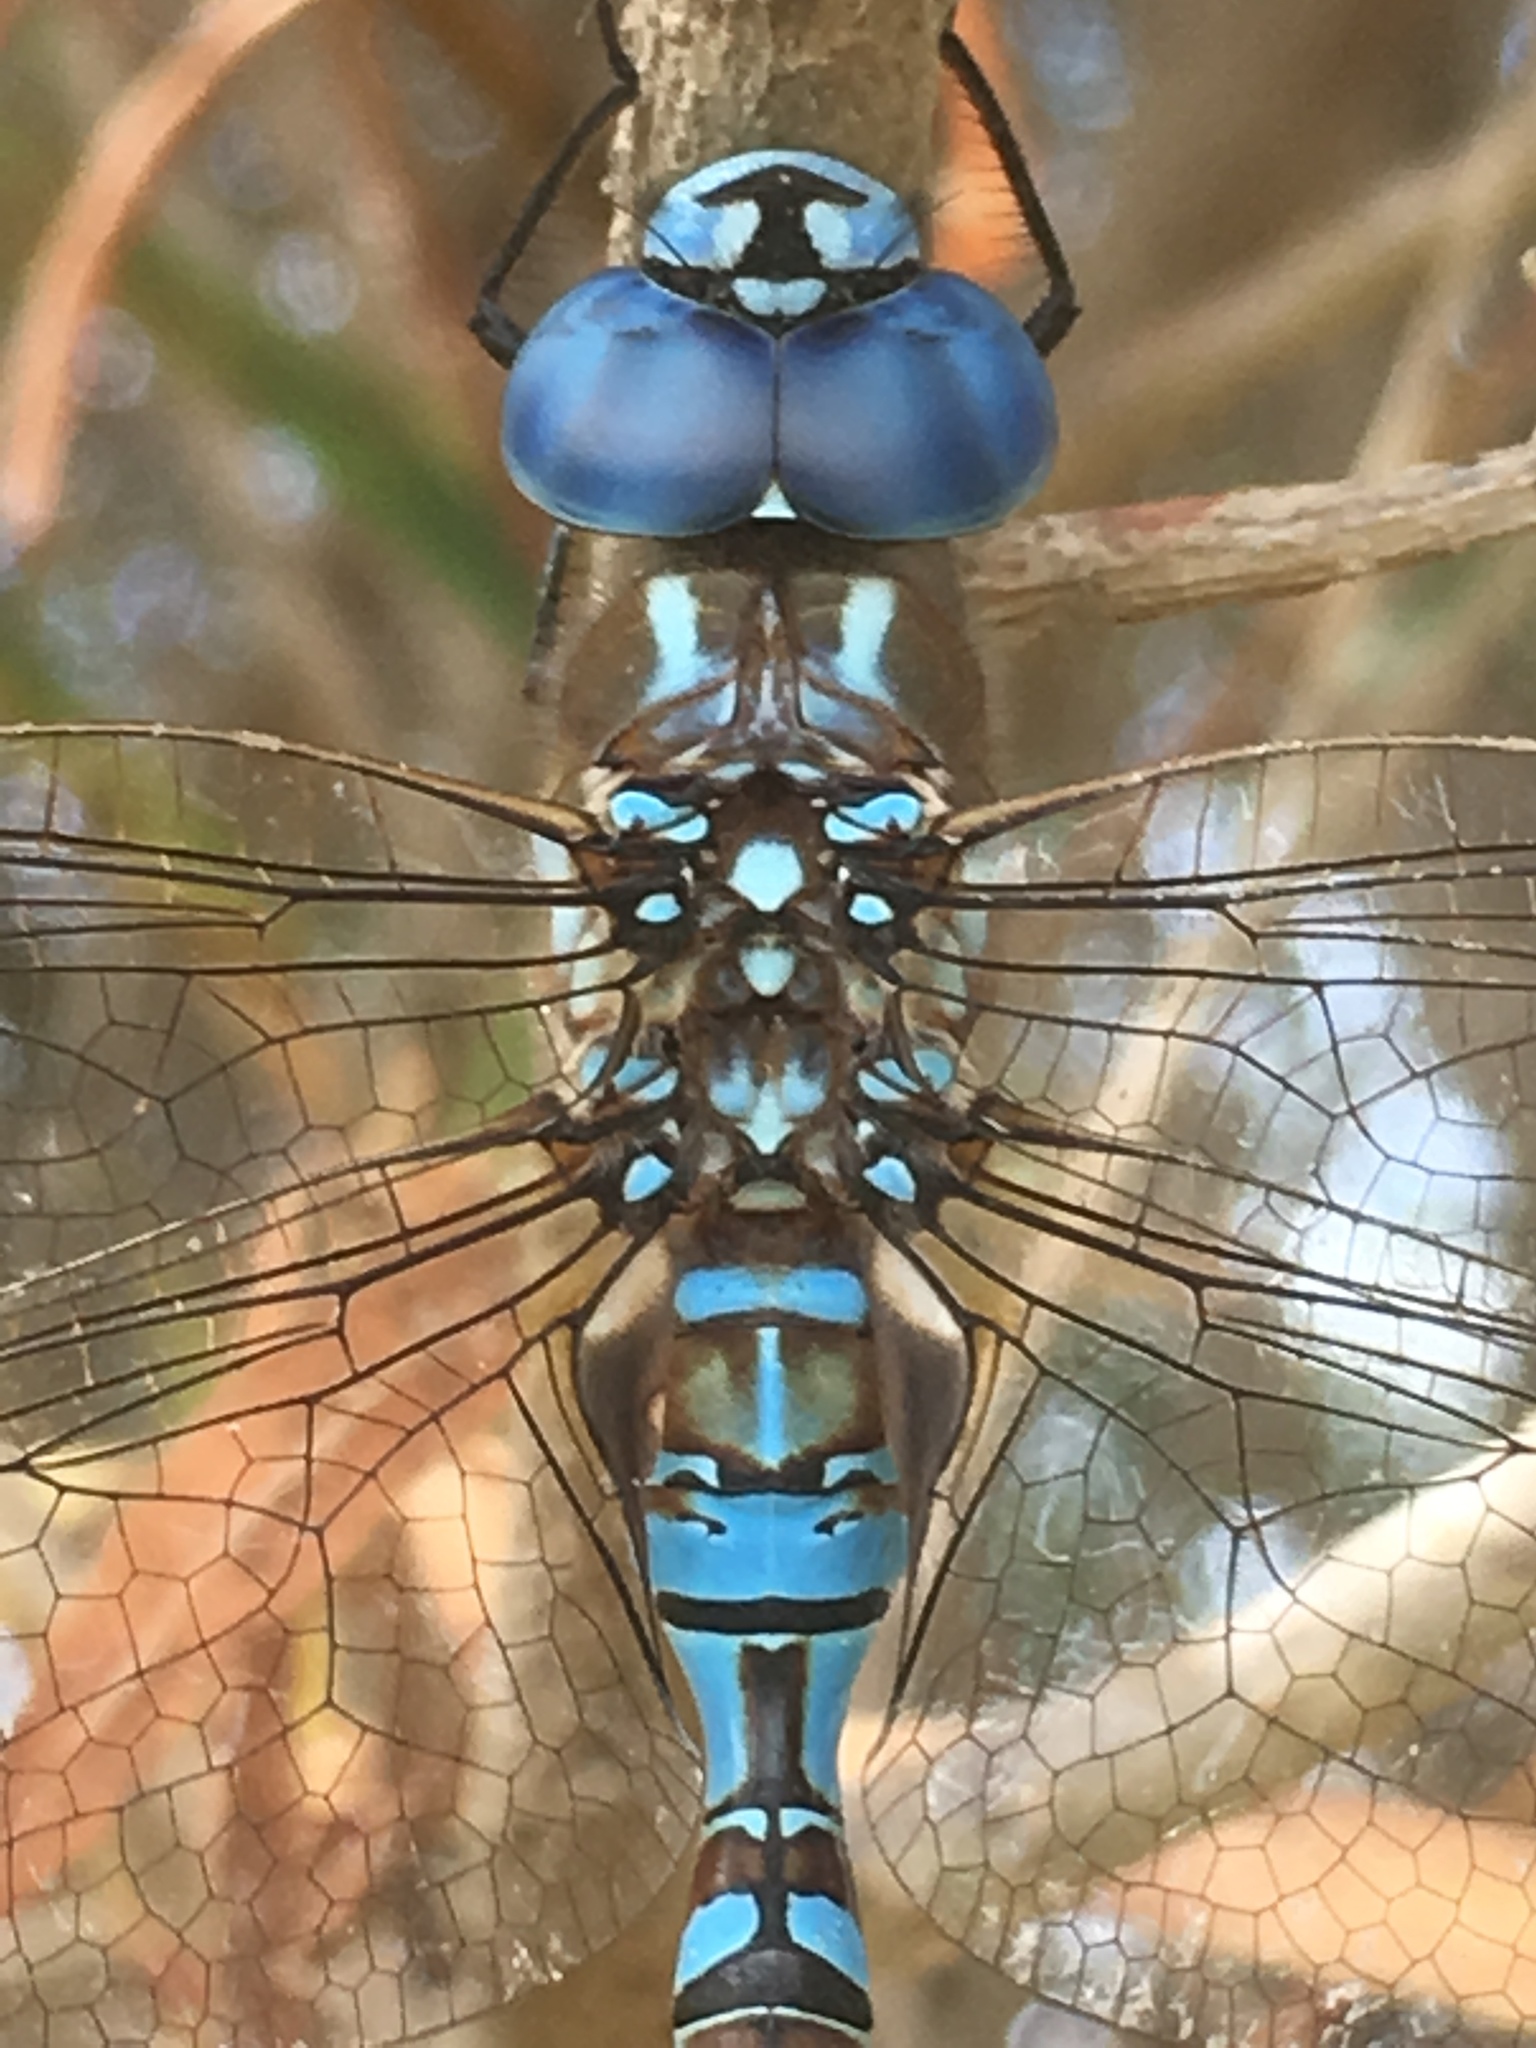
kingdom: Animalia
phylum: Arthropoda
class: Insecta
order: Odonata
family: Aeshnidae
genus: Rhionaeschna
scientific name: Rhionaeschna multicolor
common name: Blue-eyed darner
